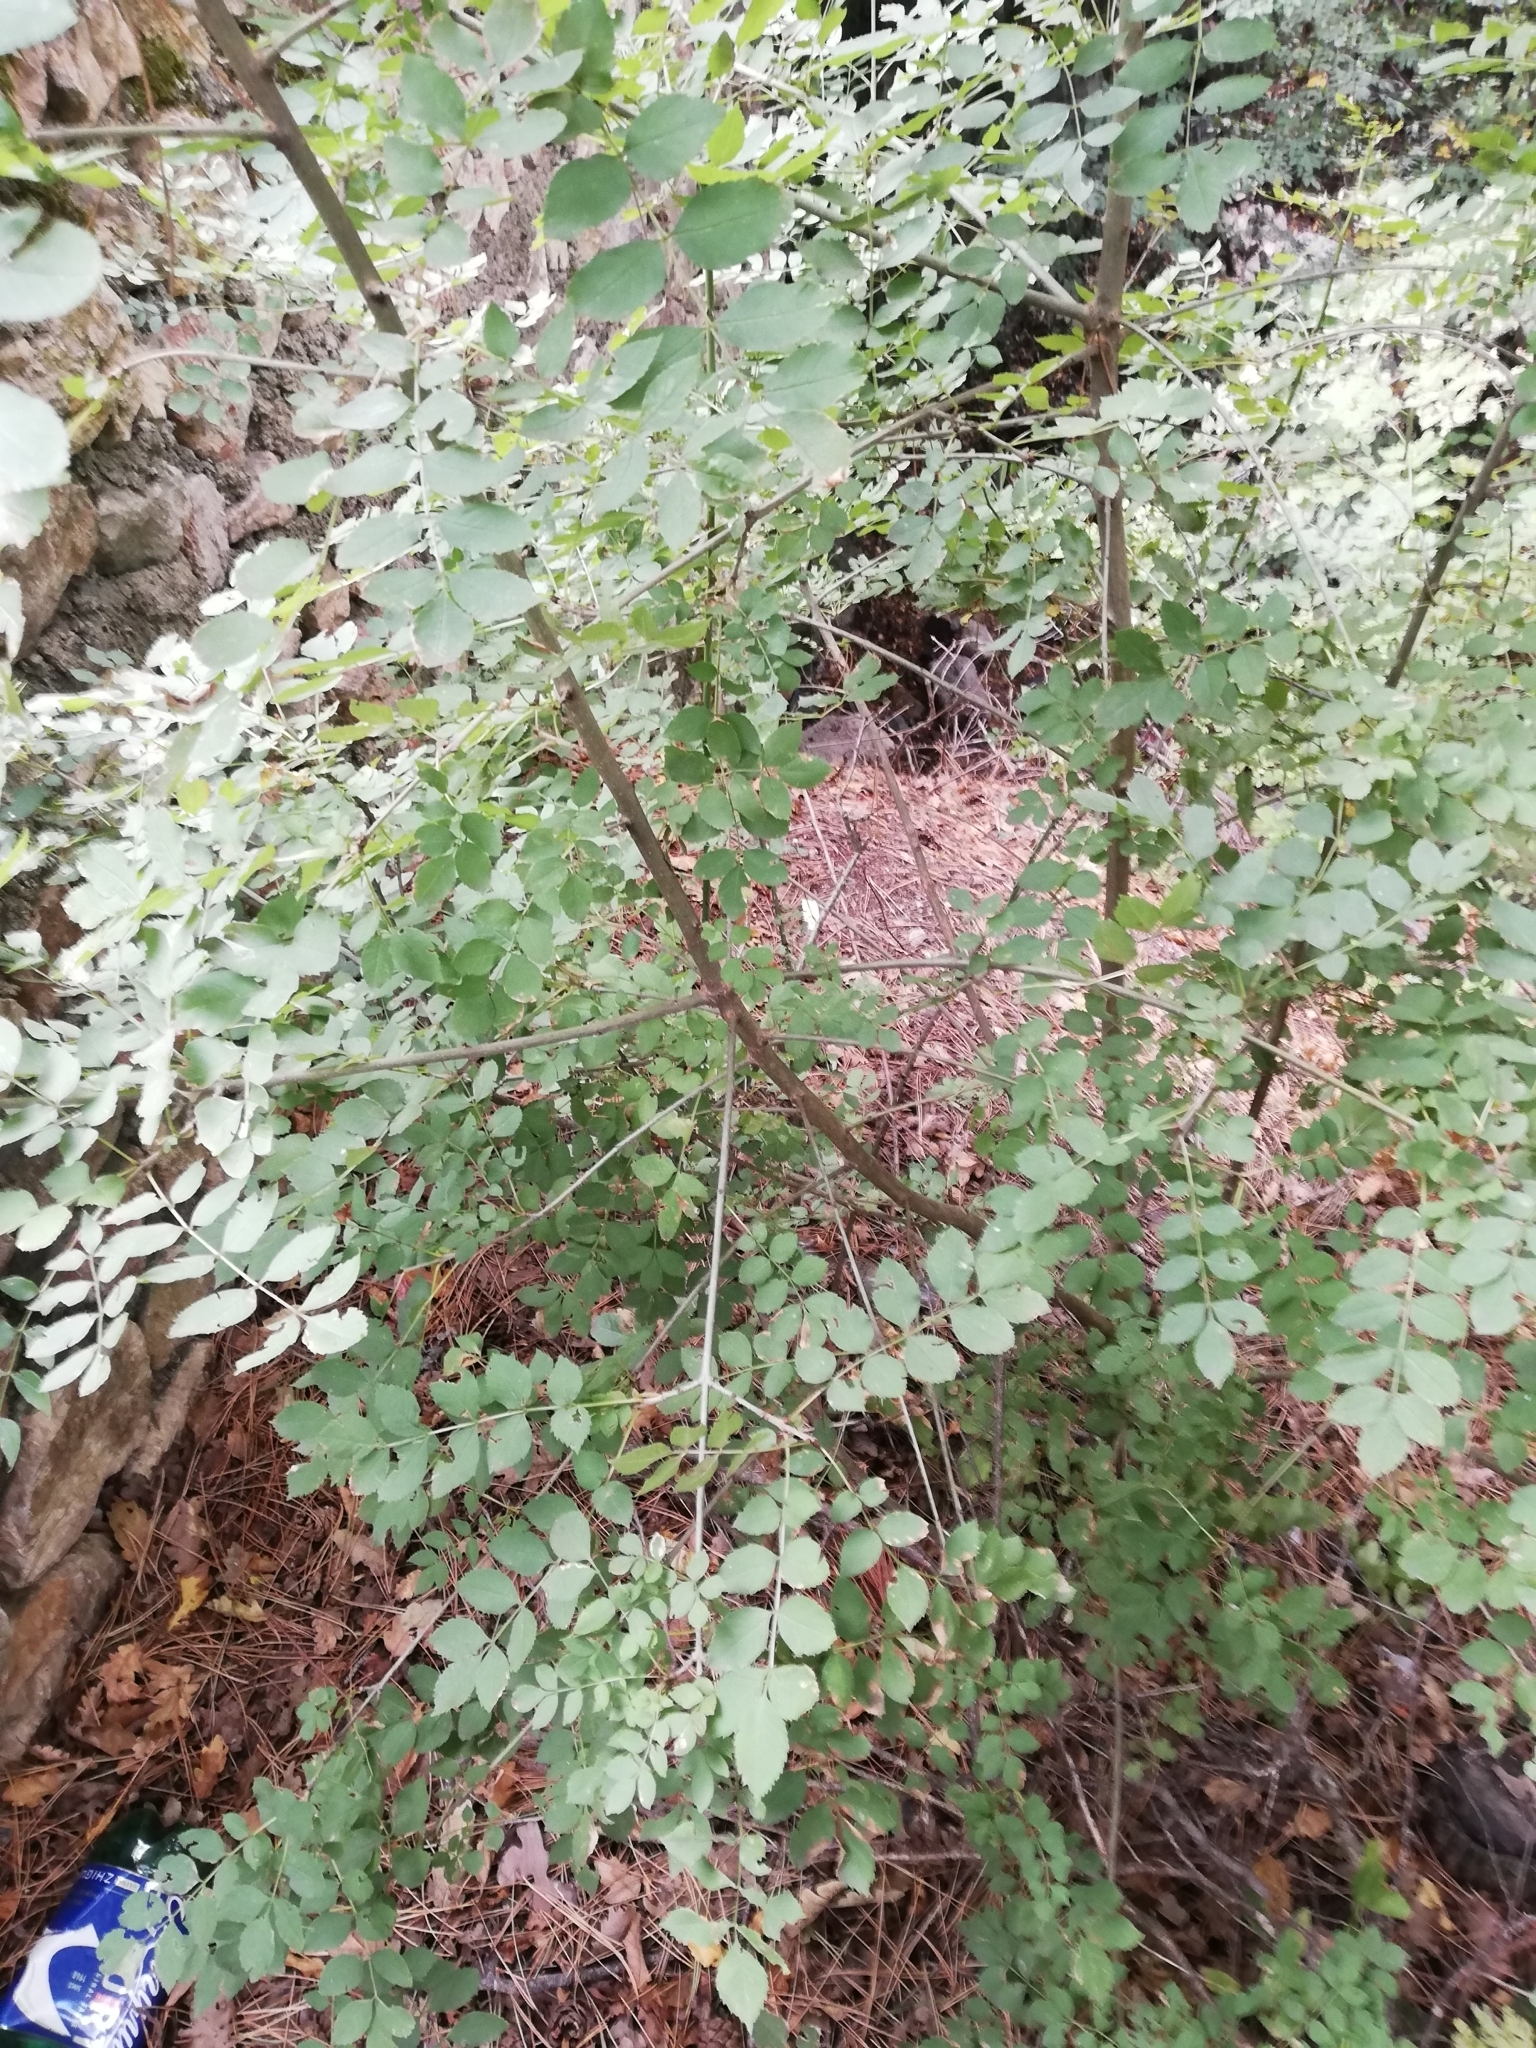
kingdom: Plantae
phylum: Tracheophyta
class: Magnoliopsida
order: Fabales
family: Fabaceae
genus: Robinia
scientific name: Robinia pseudoacacia
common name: Black locust
